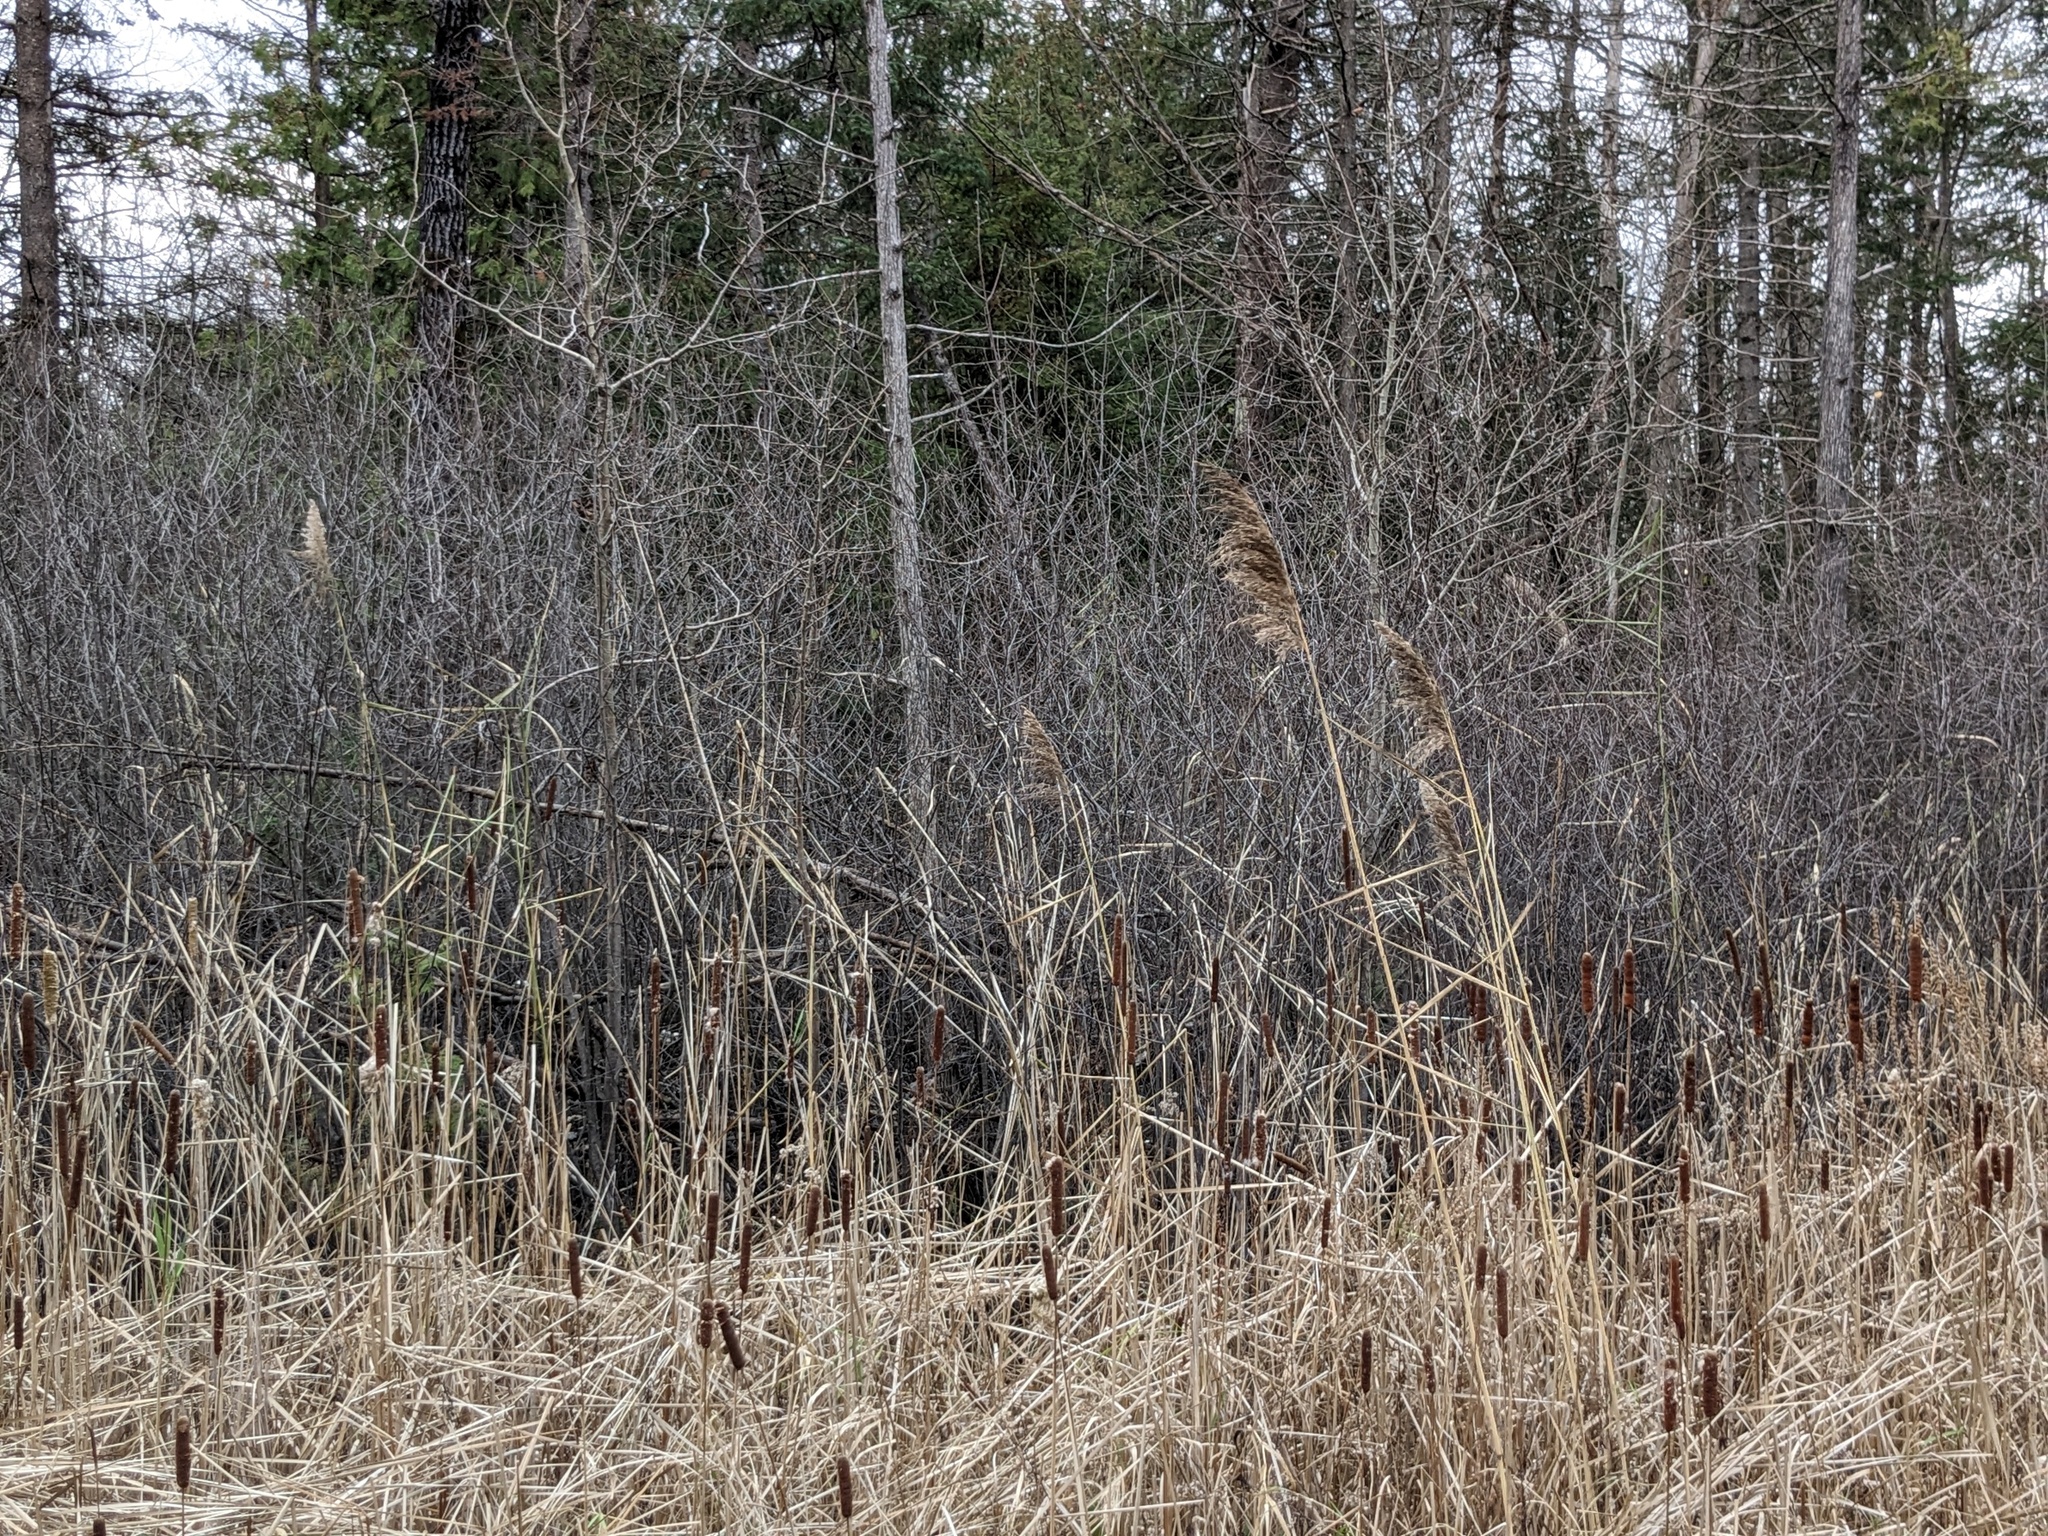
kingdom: Plantae
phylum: Tracheophyta
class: Liliopsida
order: Poales
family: Poaceae
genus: Phragmites
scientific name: Phragmites australis
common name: Common reed
